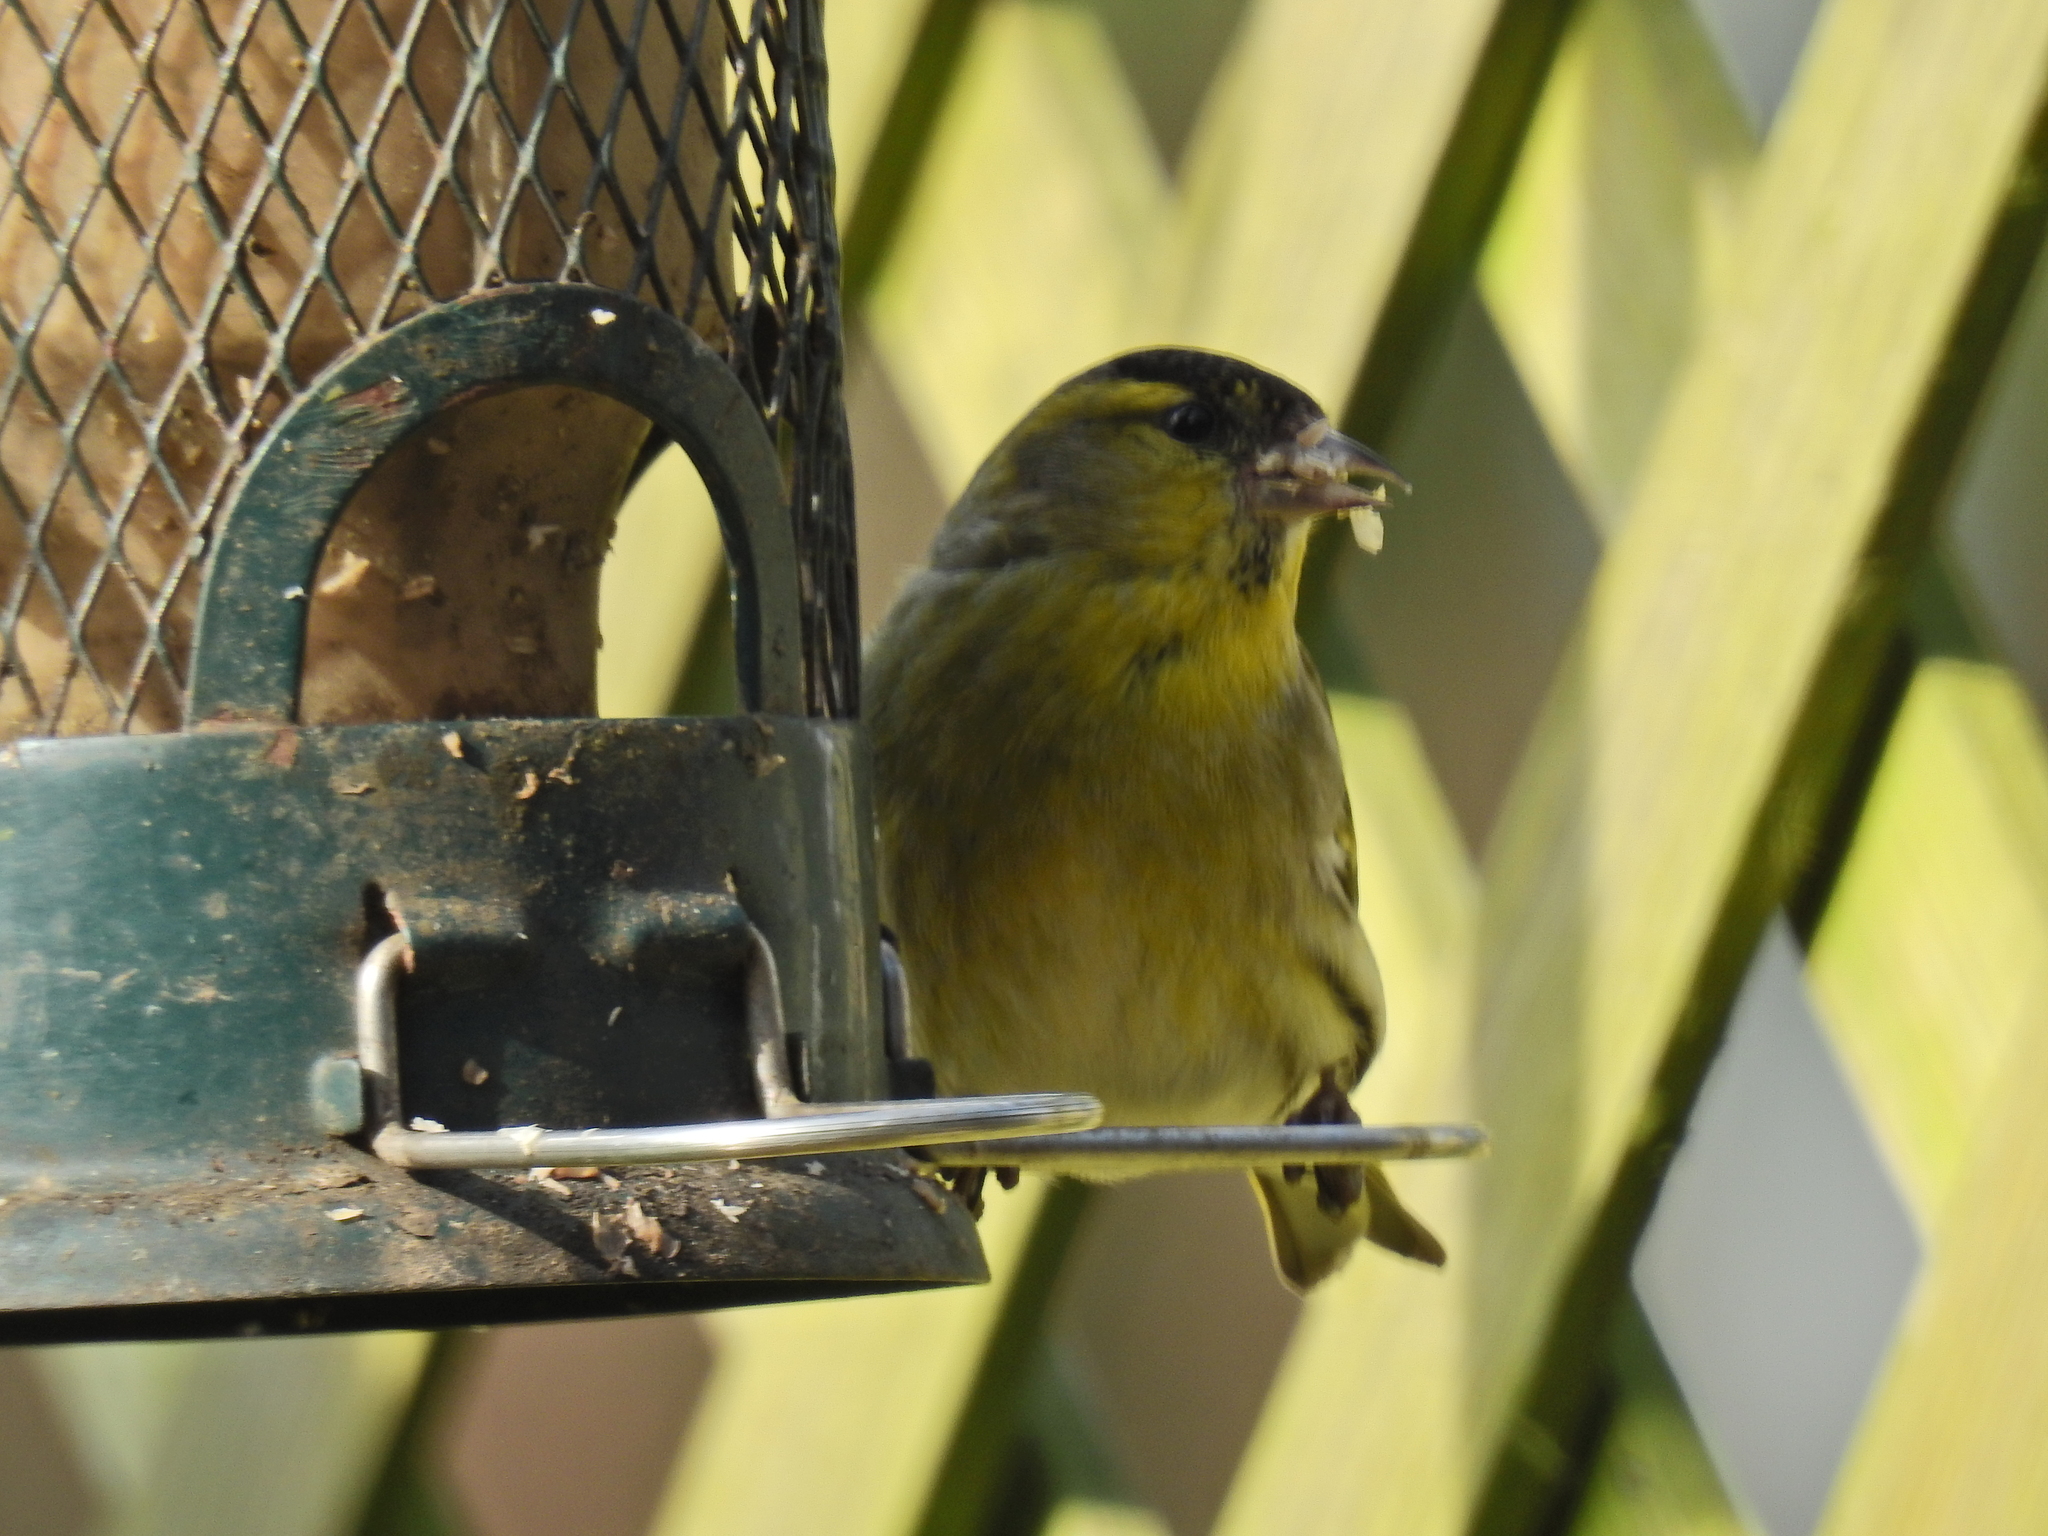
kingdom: Animalia
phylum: Chordata
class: Aves
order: Passeriformes
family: Fringillidae
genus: Spinus
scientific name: Spinus spinus
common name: Eurasian siskin
